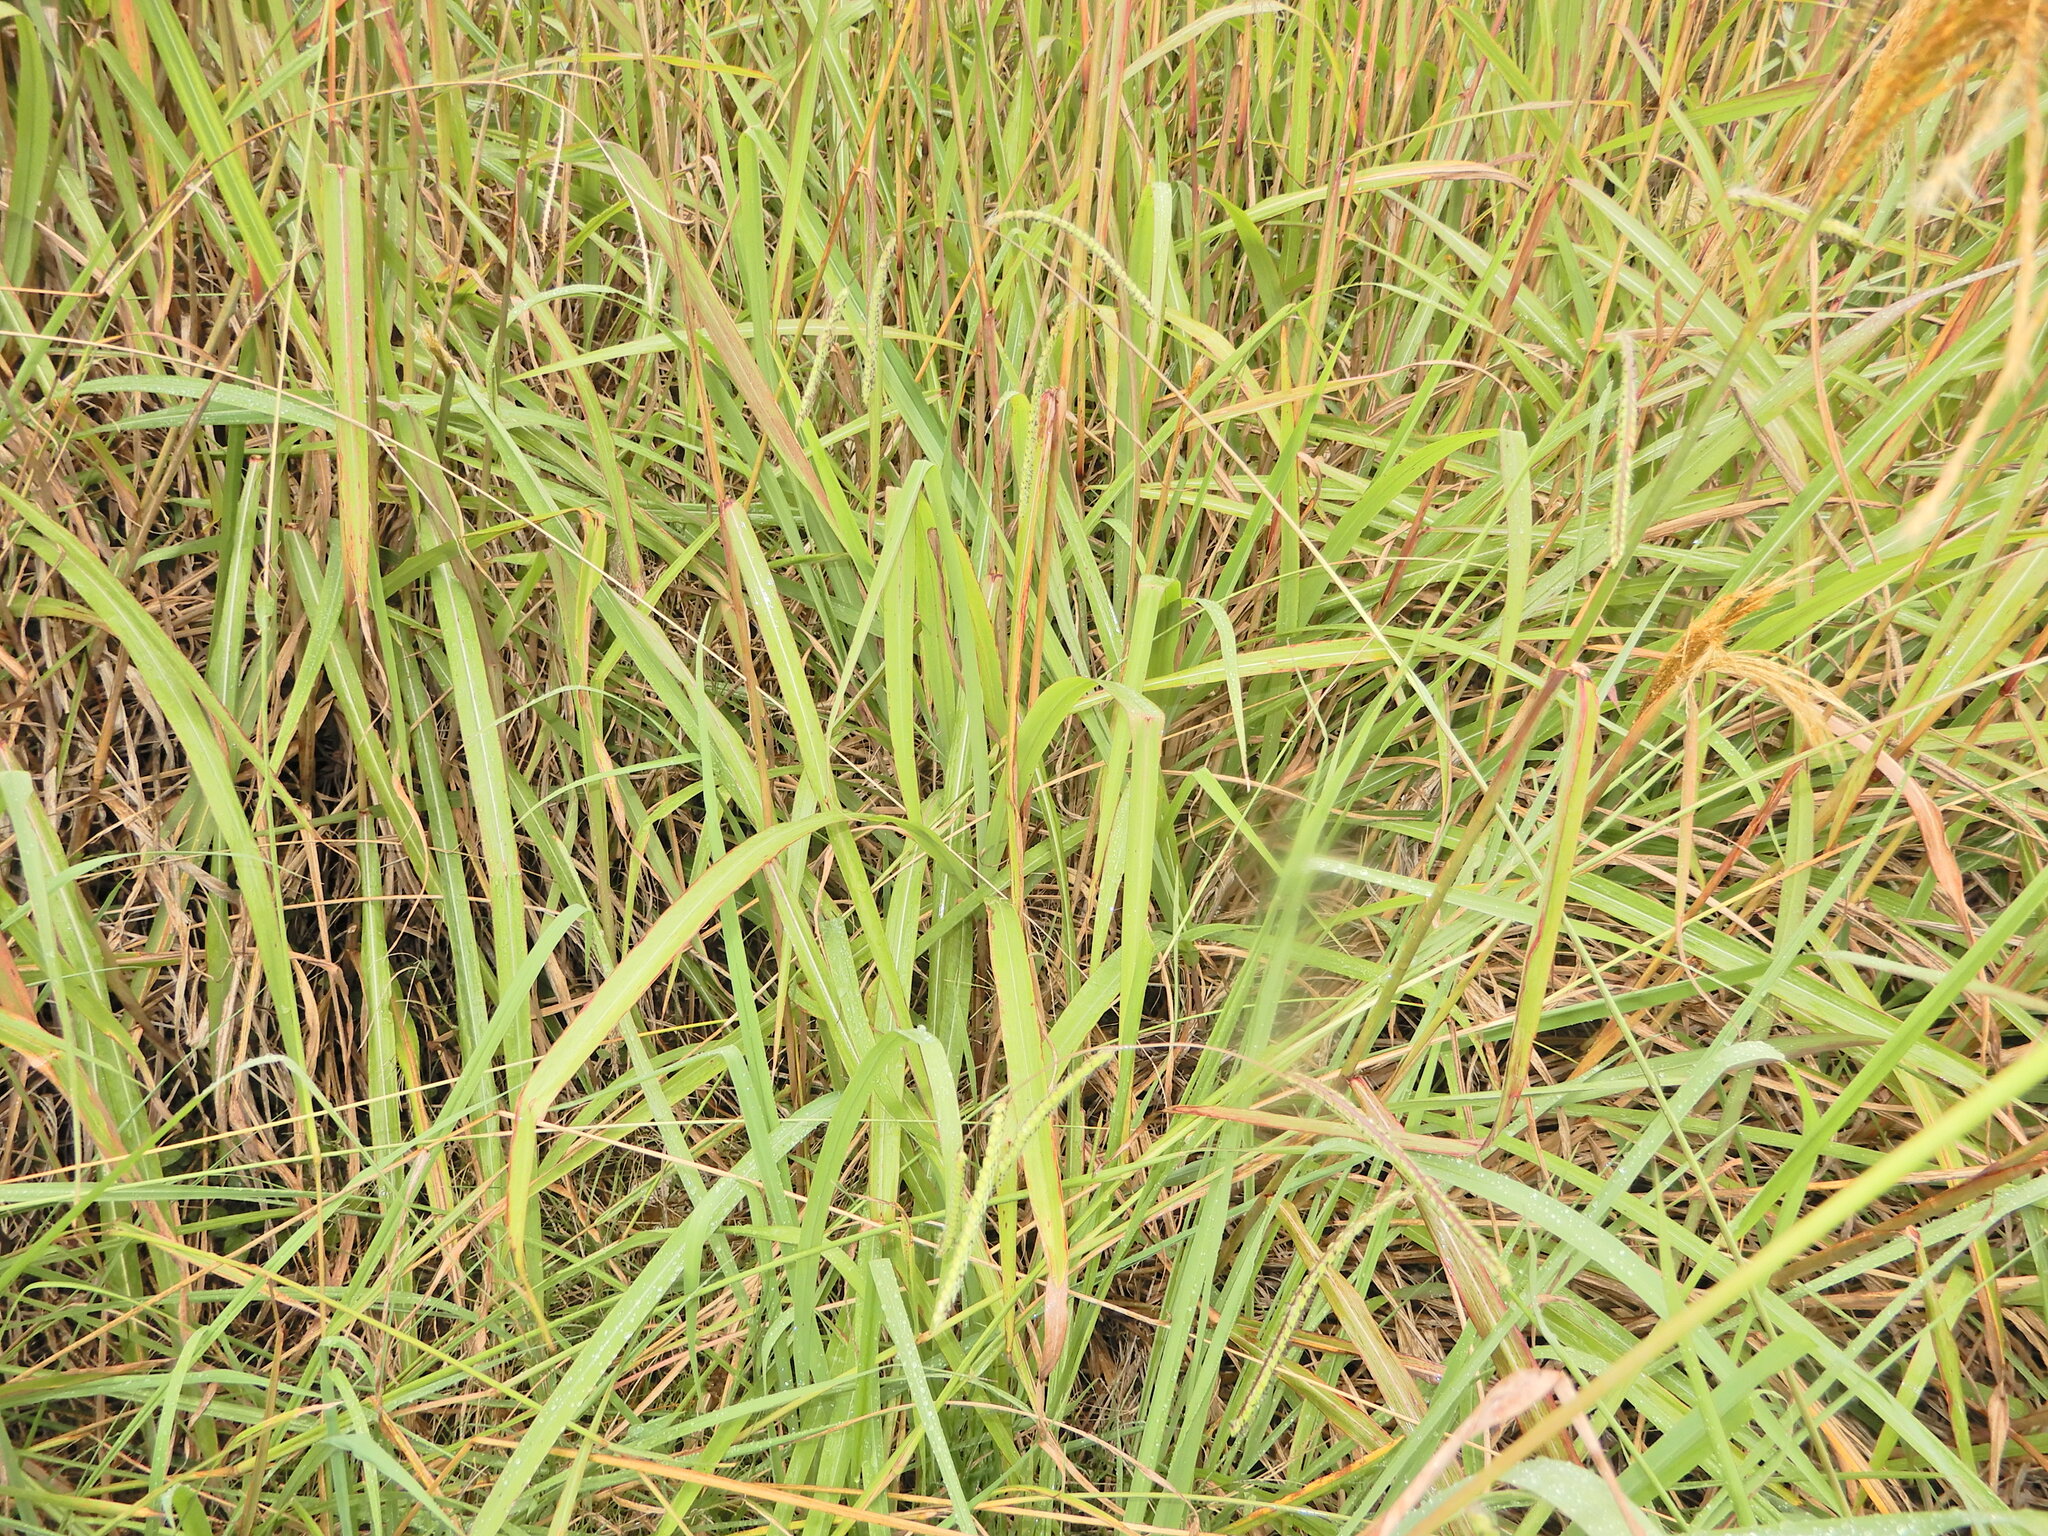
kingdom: Plantae
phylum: Tracheophyta
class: Liliopsida
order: Poales
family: Poaceae
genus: Miscanthus
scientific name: Miscanthus nepalensis
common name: Nepal silver grass
